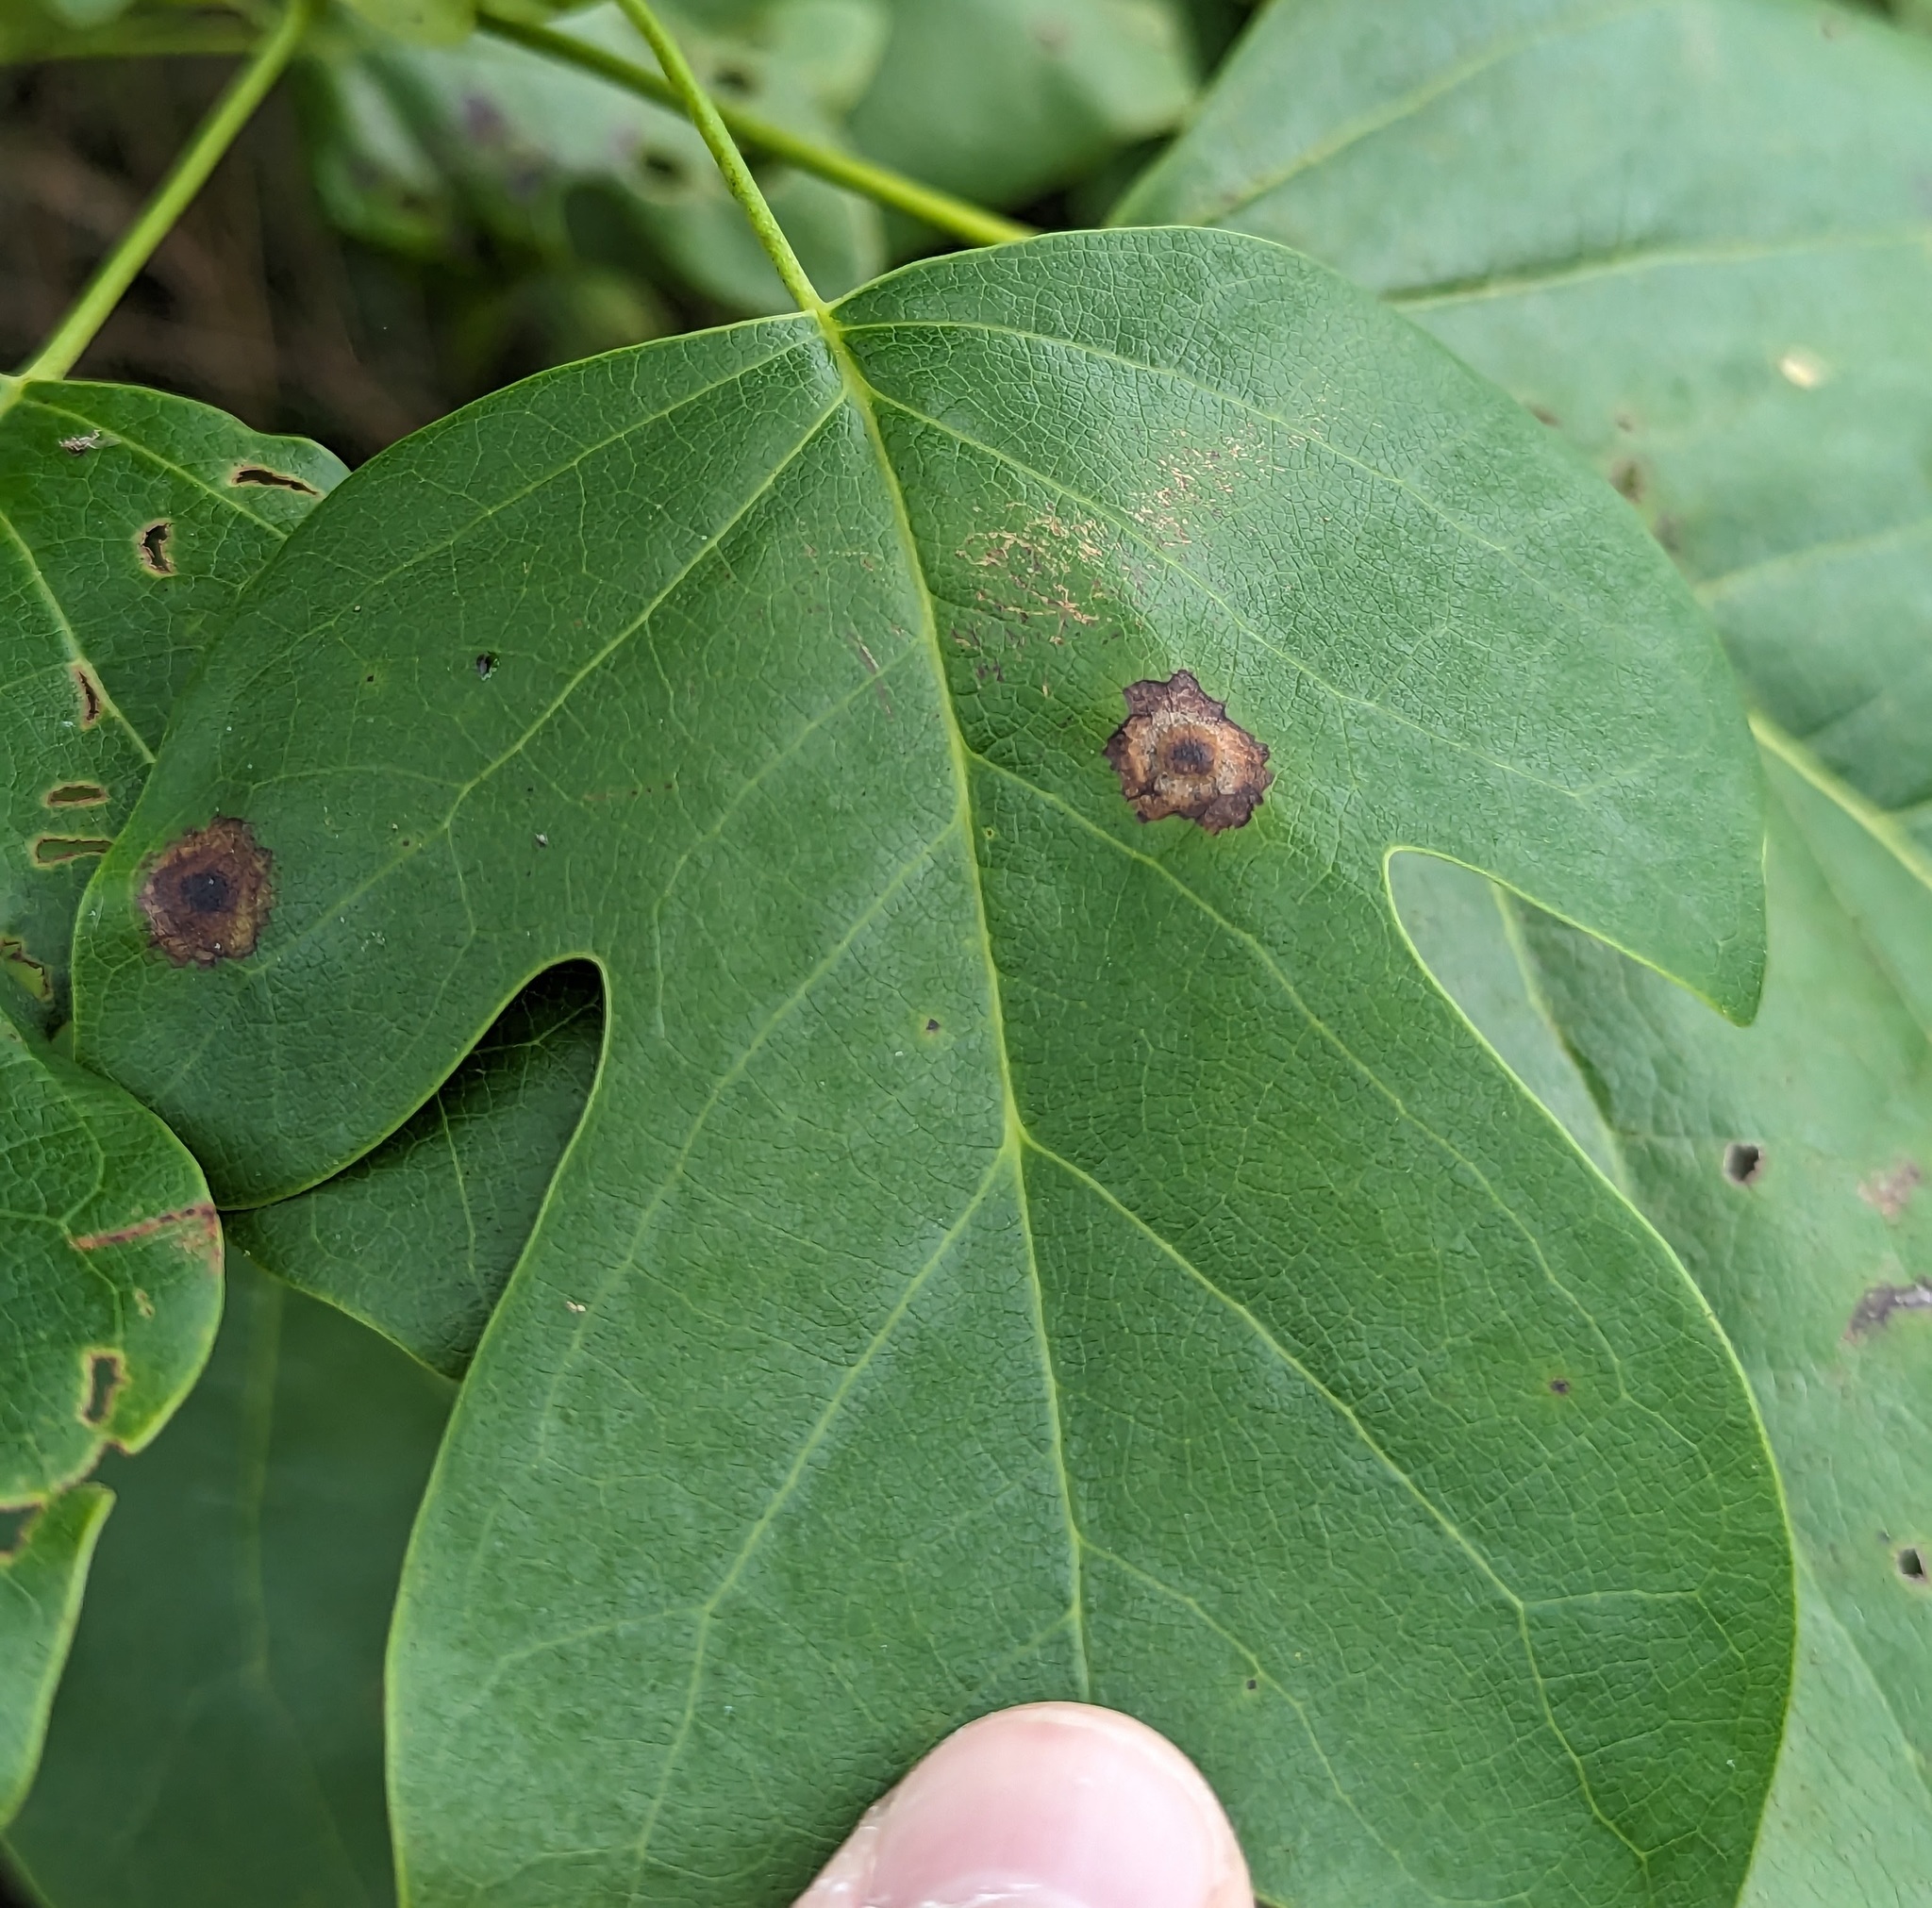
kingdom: Animalia
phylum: Arthropoda
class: Insecta
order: Diptera
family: Cecidomyiidae
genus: Resseliella
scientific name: Resseliella liriodendri
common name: Tulip tree leaf spot gall midge
